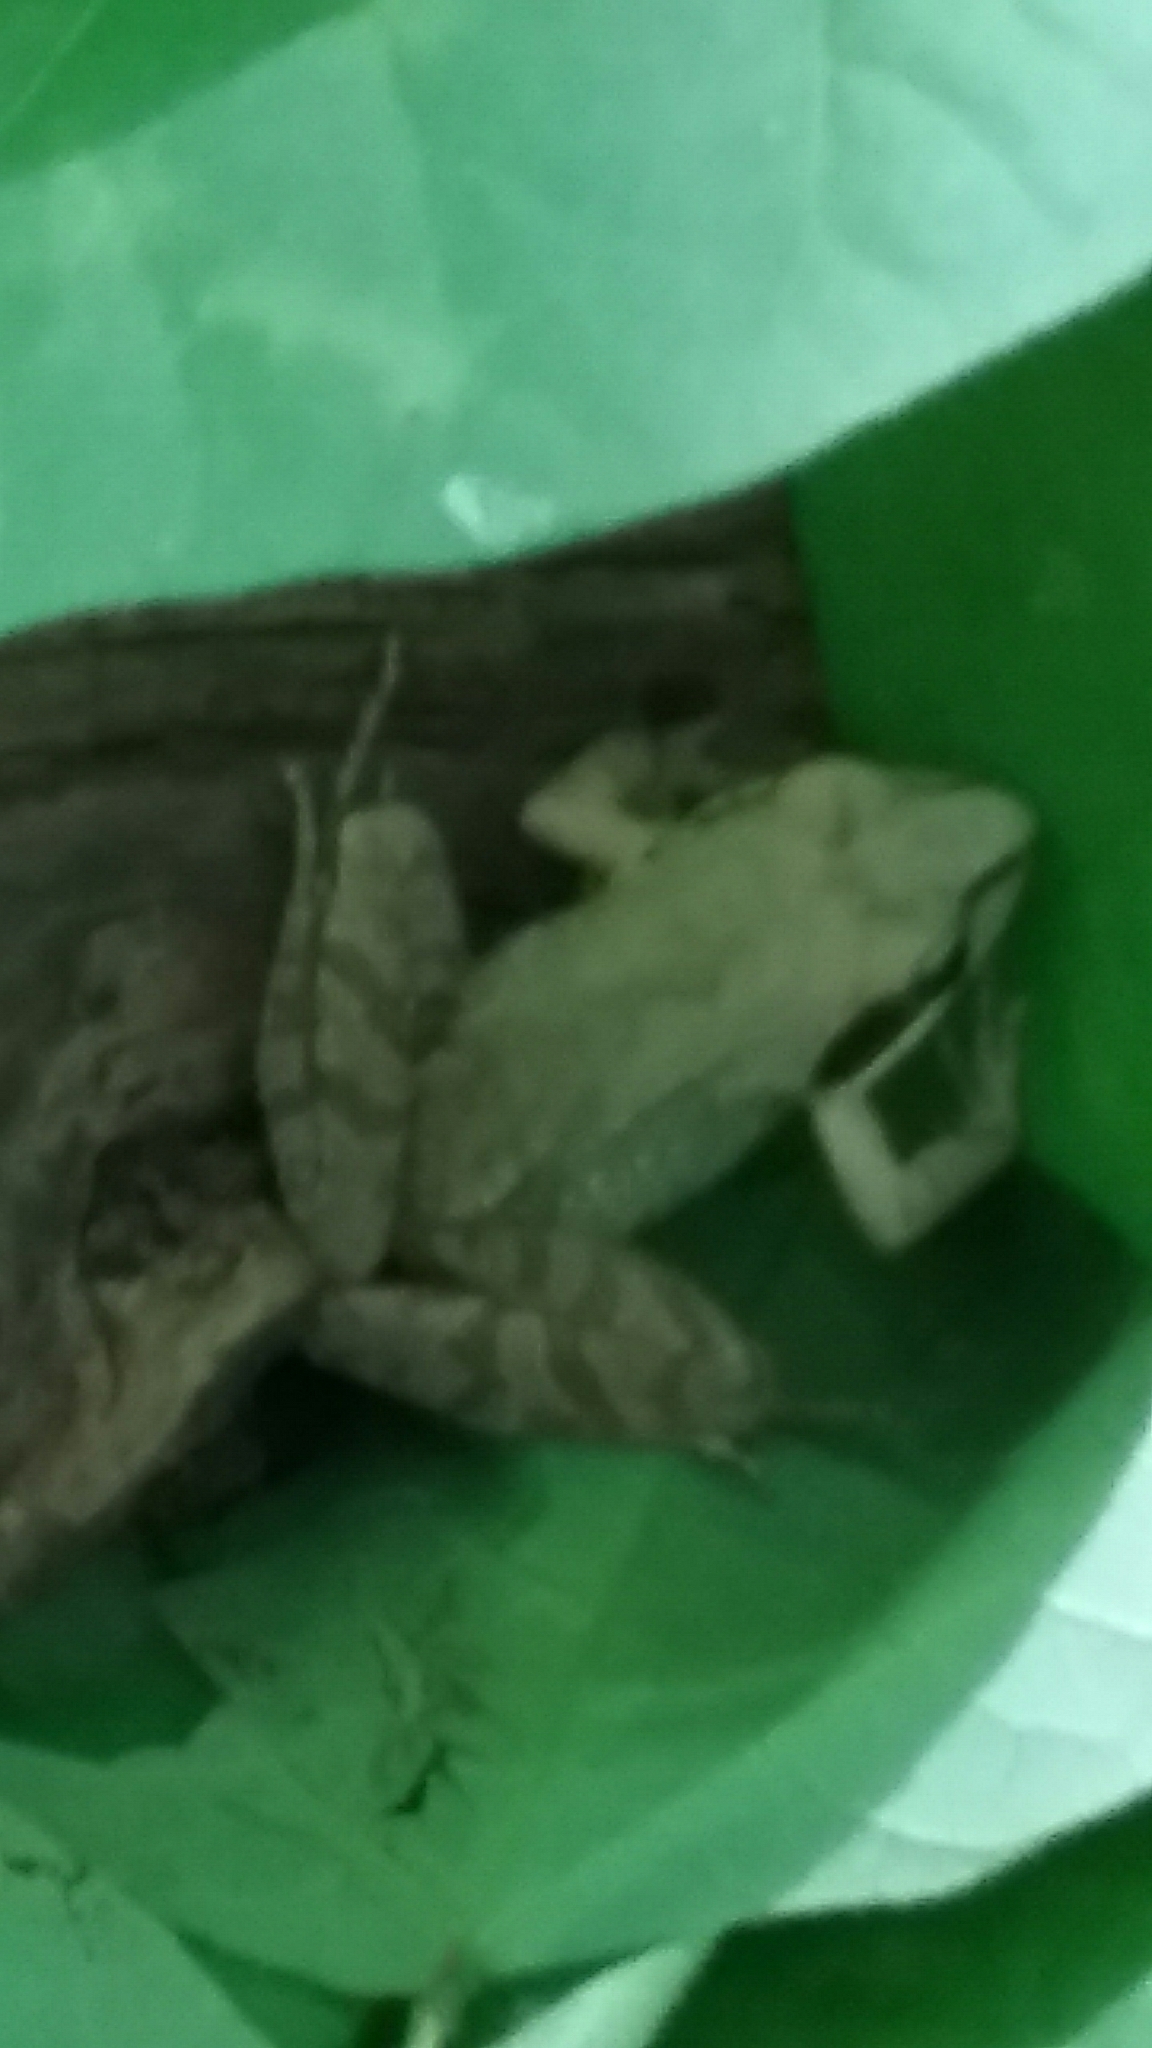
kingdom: Animalia
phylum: Chordata
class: Amphibia
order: Anura
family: Ranidae
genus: Lithobates
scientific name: Lithobates sylvaticus
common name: Wood frog
